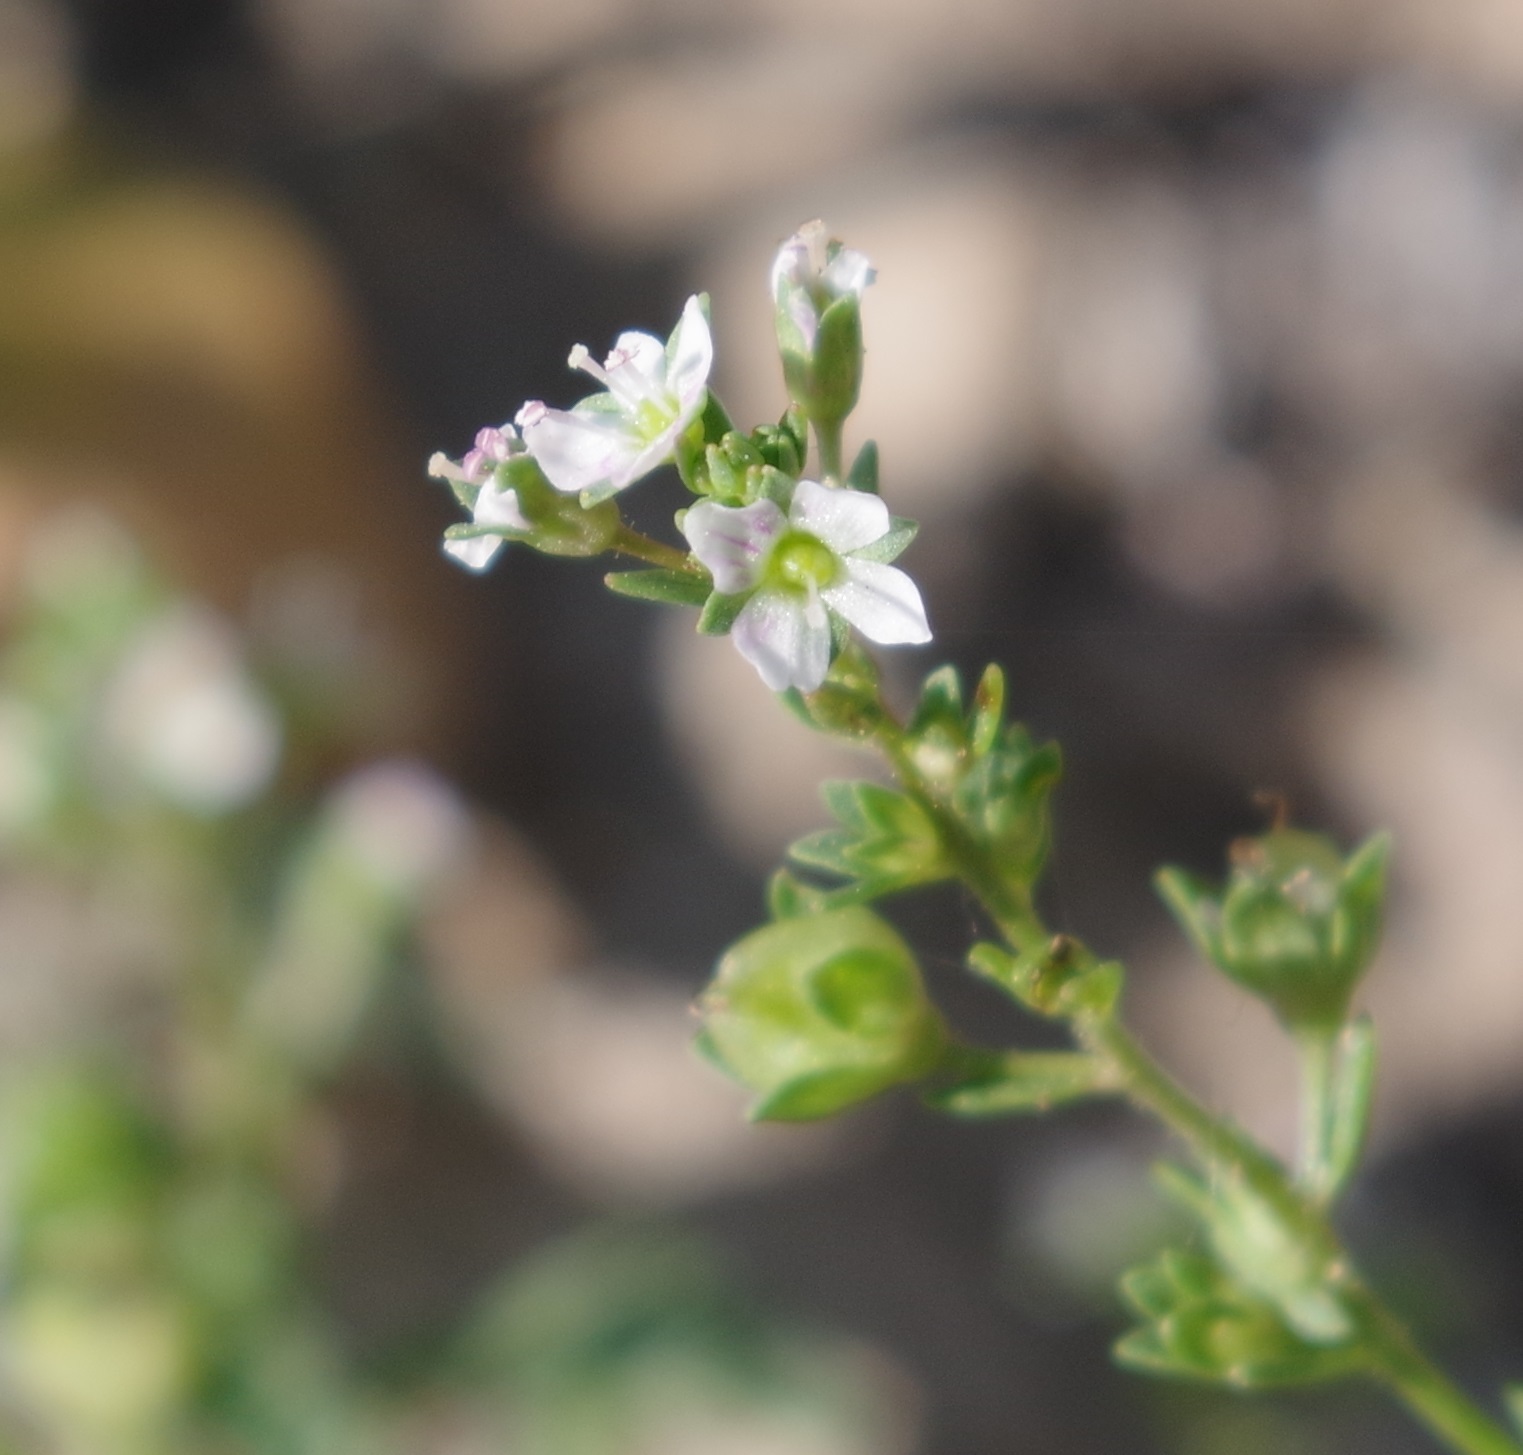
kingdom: Plantae
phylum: Tracheophyta
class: Magnoliopsida
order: Lamiales
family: Plantaginaceae
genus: Veronica
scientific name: Veronica catenata
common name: Pink water-speedwell
